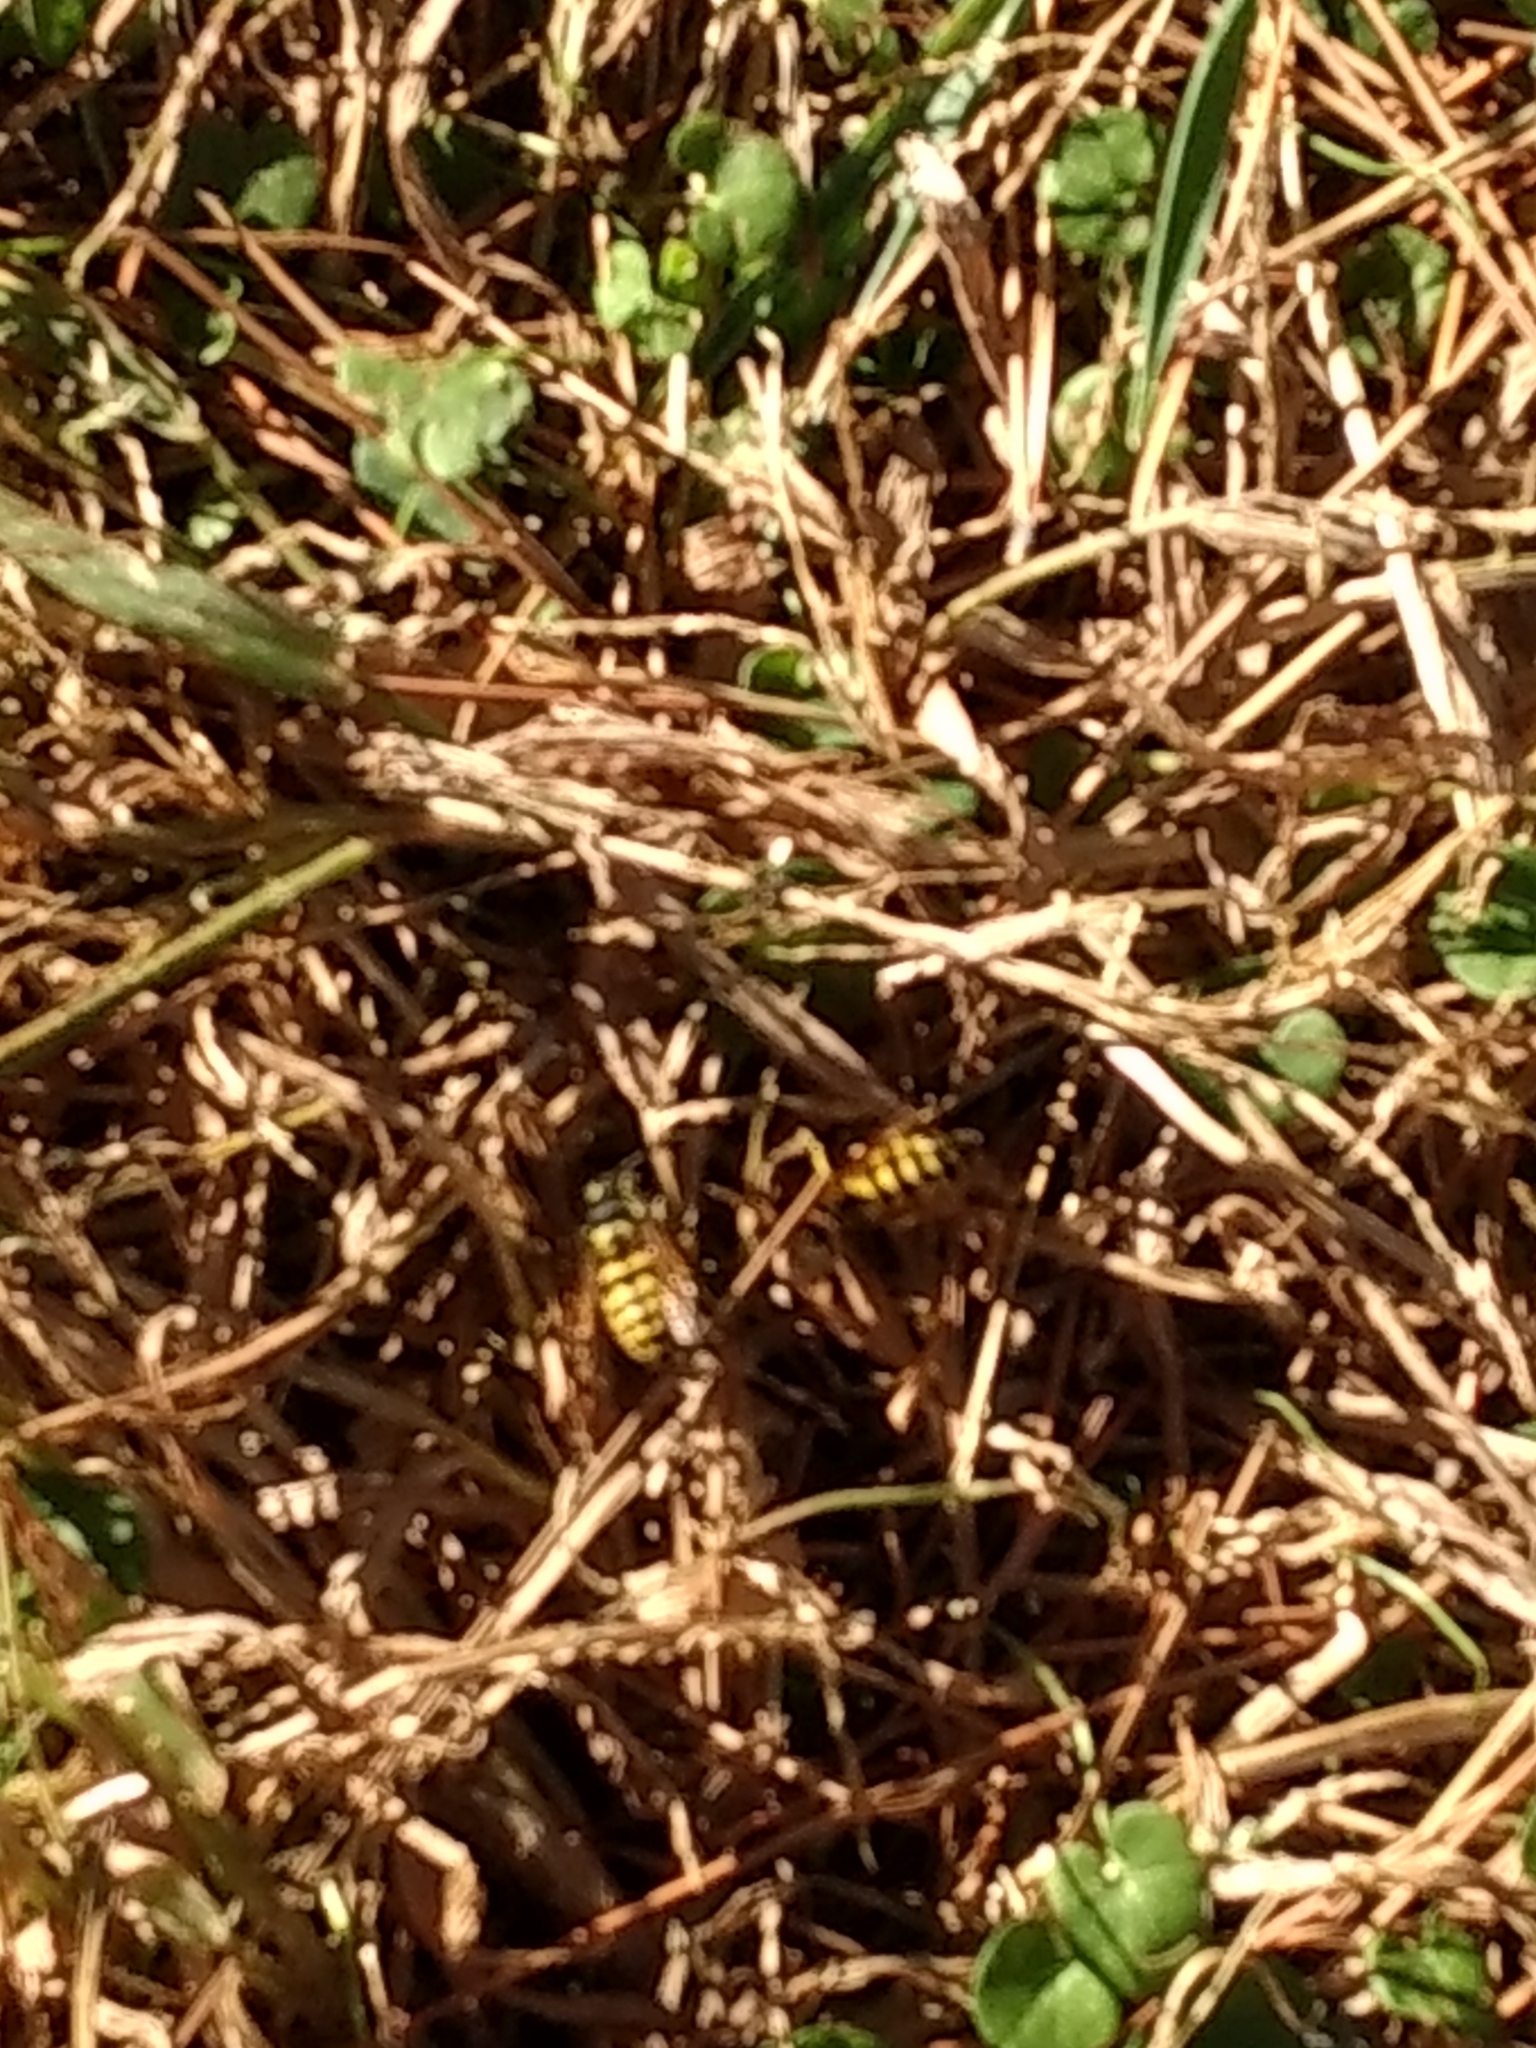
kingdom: Animalia
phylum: Arthropoda
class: Insecta
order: Hymenoptera
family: Vespidae
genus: Vespula
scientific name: Vespula pensylvanica
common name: Western yellowjacket
